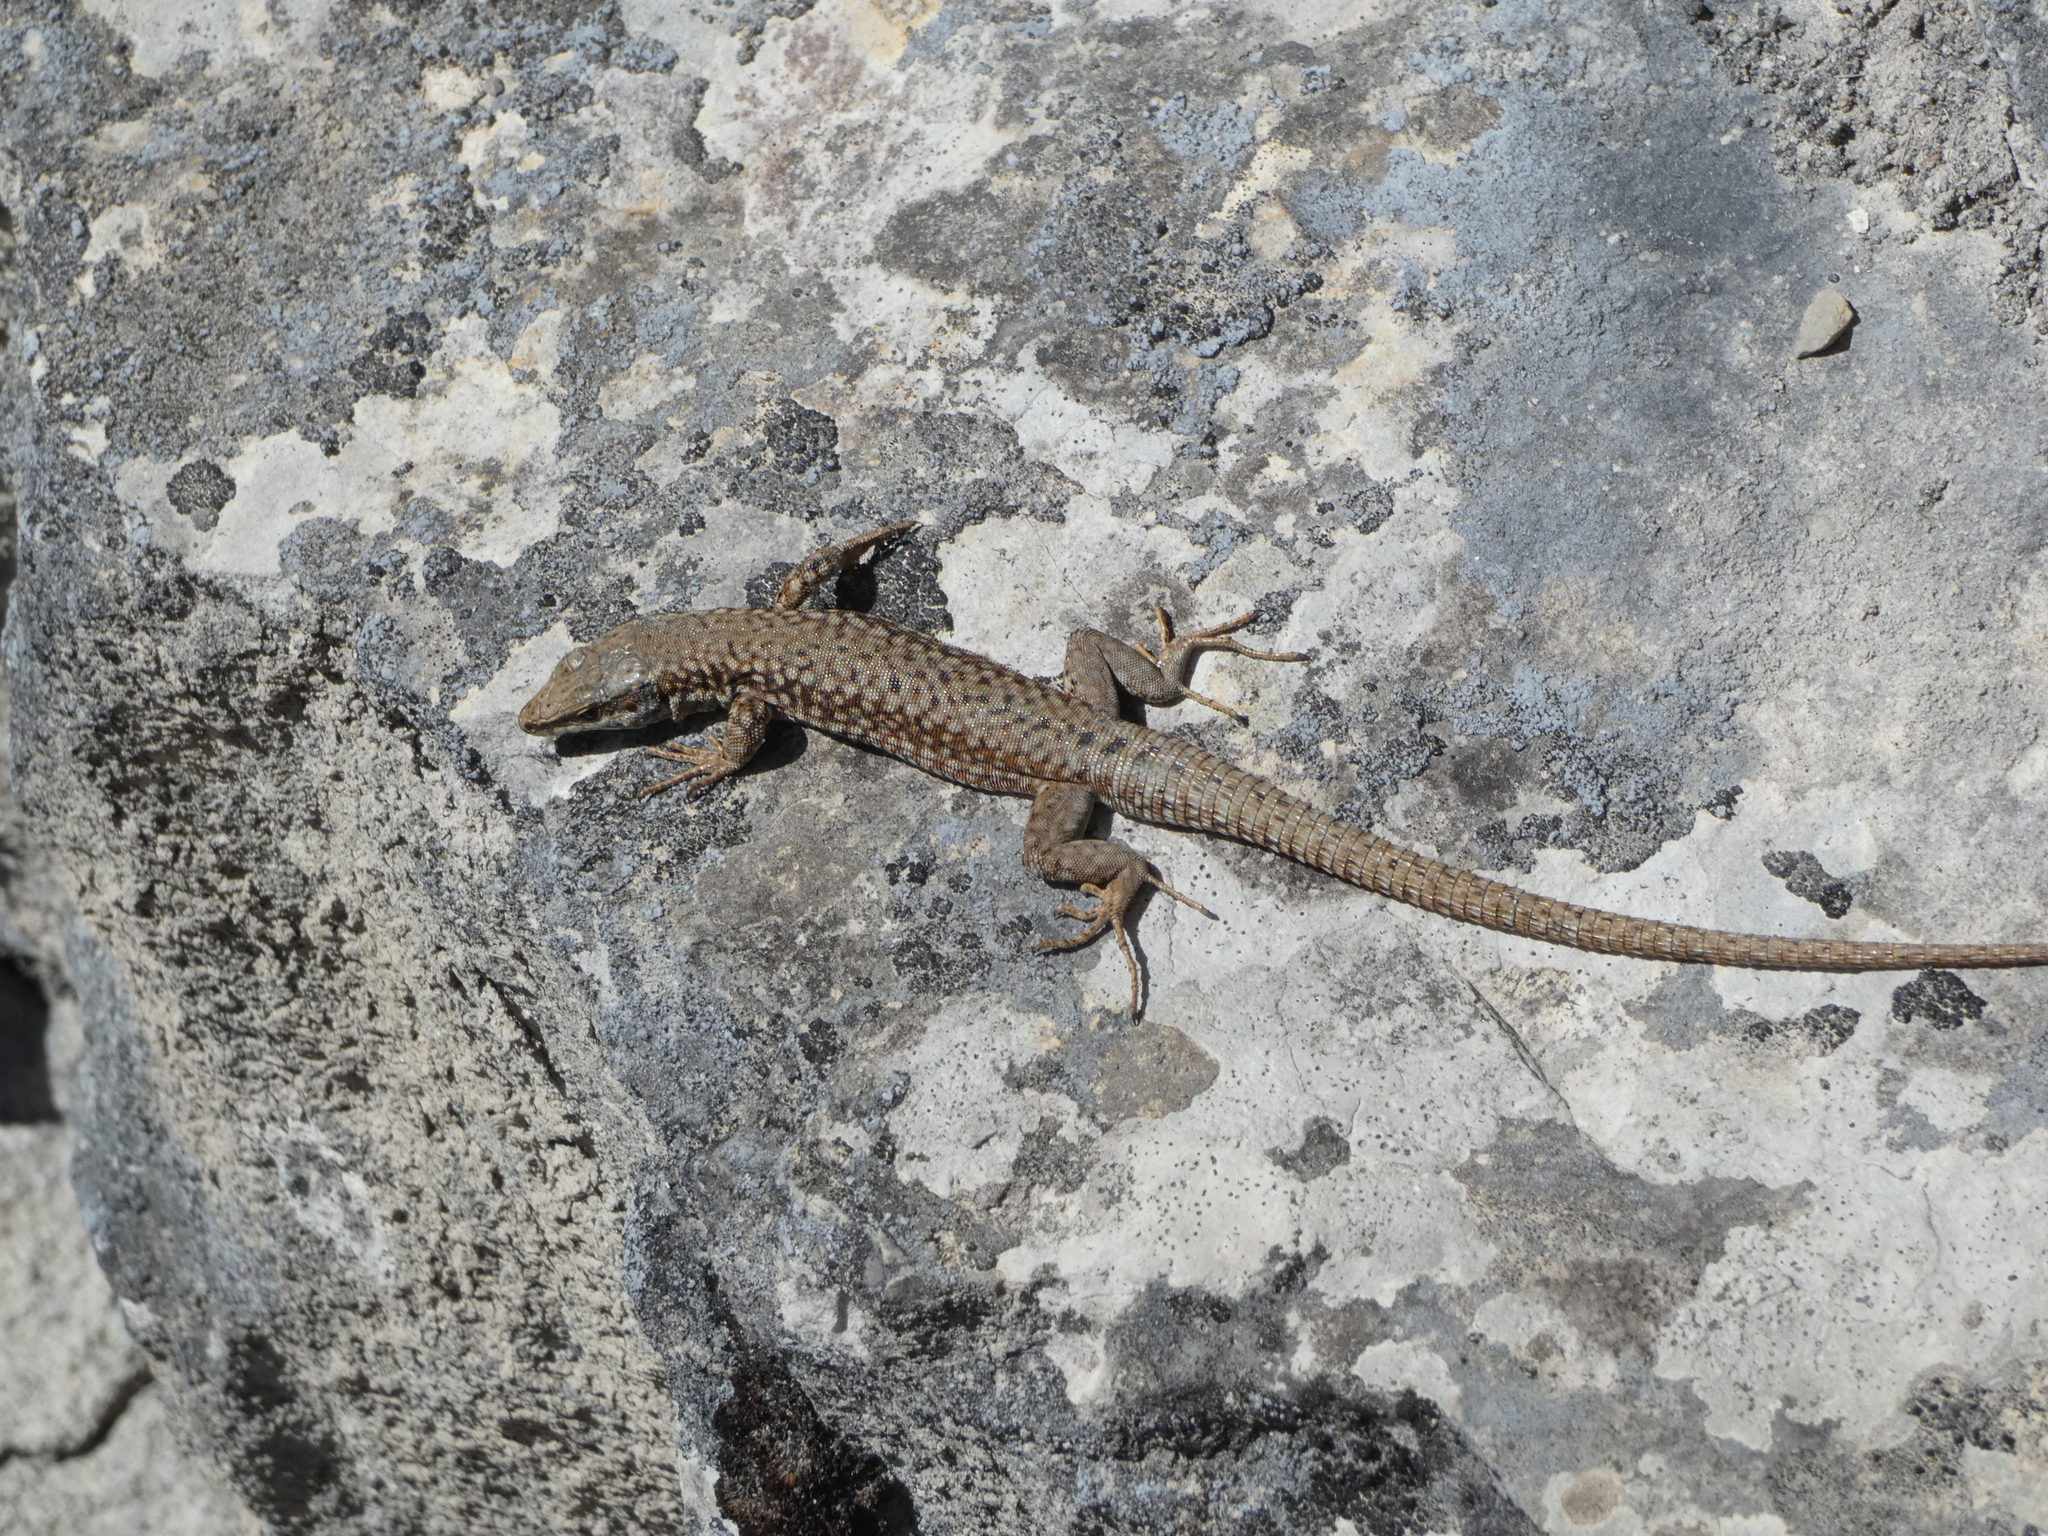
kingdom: Animalia
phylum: Chordata
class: Squamata
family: Lacertidae
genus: Podarcis
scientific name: Podarcis muralis
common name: Common wall lizard
